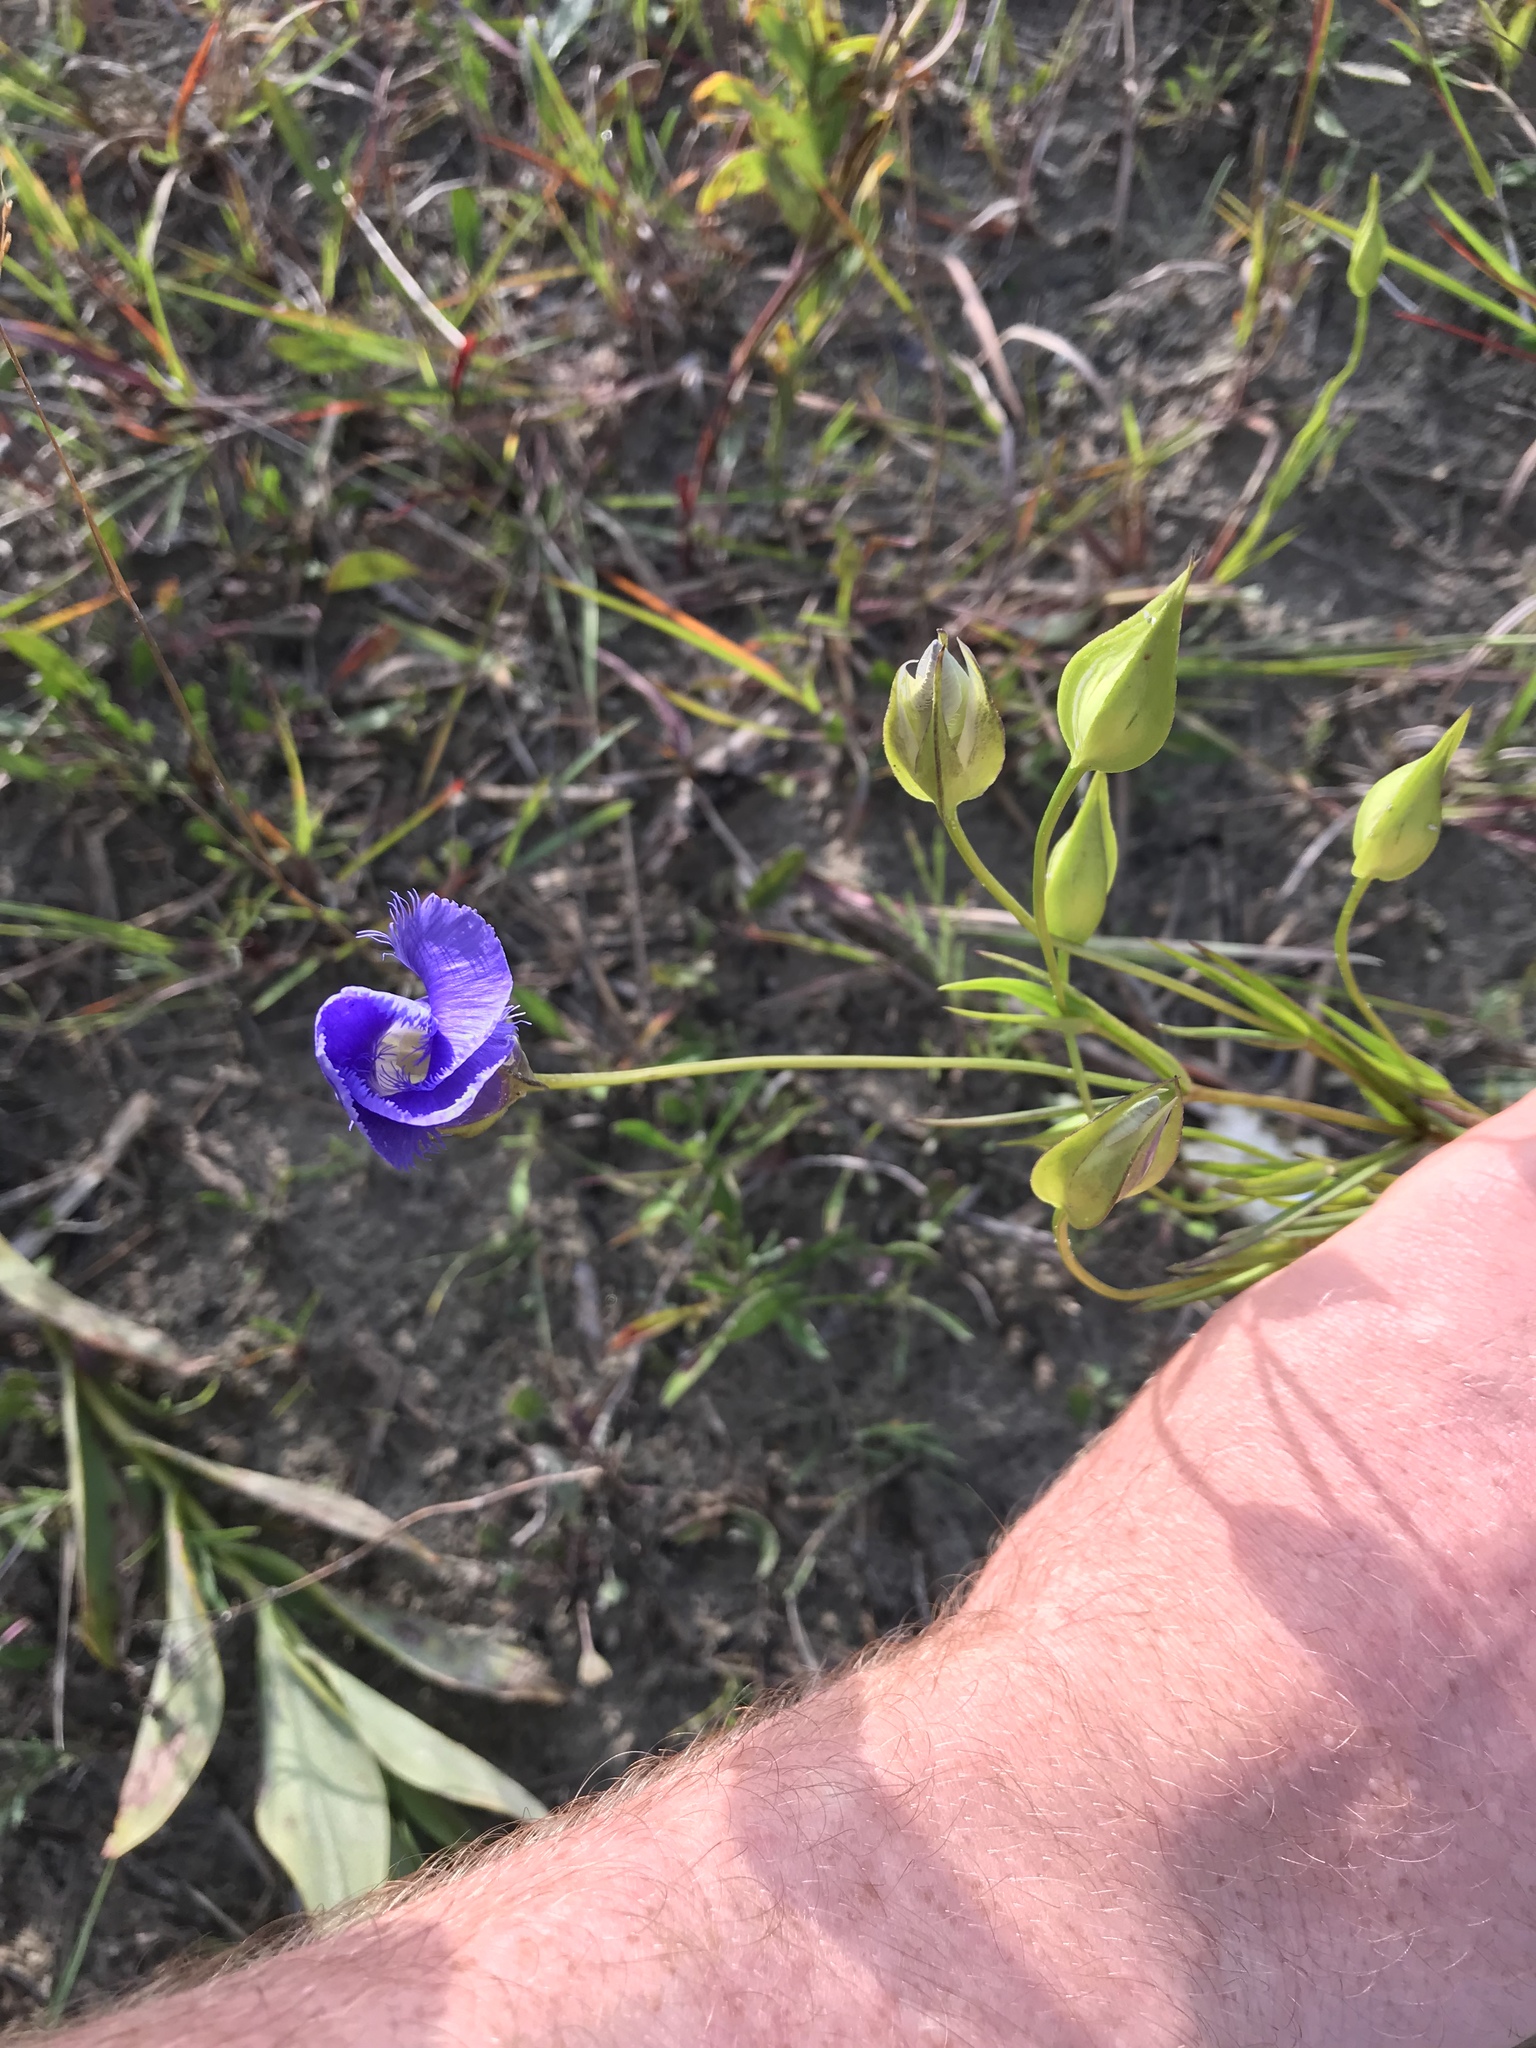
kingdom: Plantae
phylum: Tracheophyta
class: Magnoliopsida
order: Gentianales
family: Gentianaceae
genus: Gentianopsis
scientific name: Gentianopsis virgata
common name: Lesser fringed-gentian
